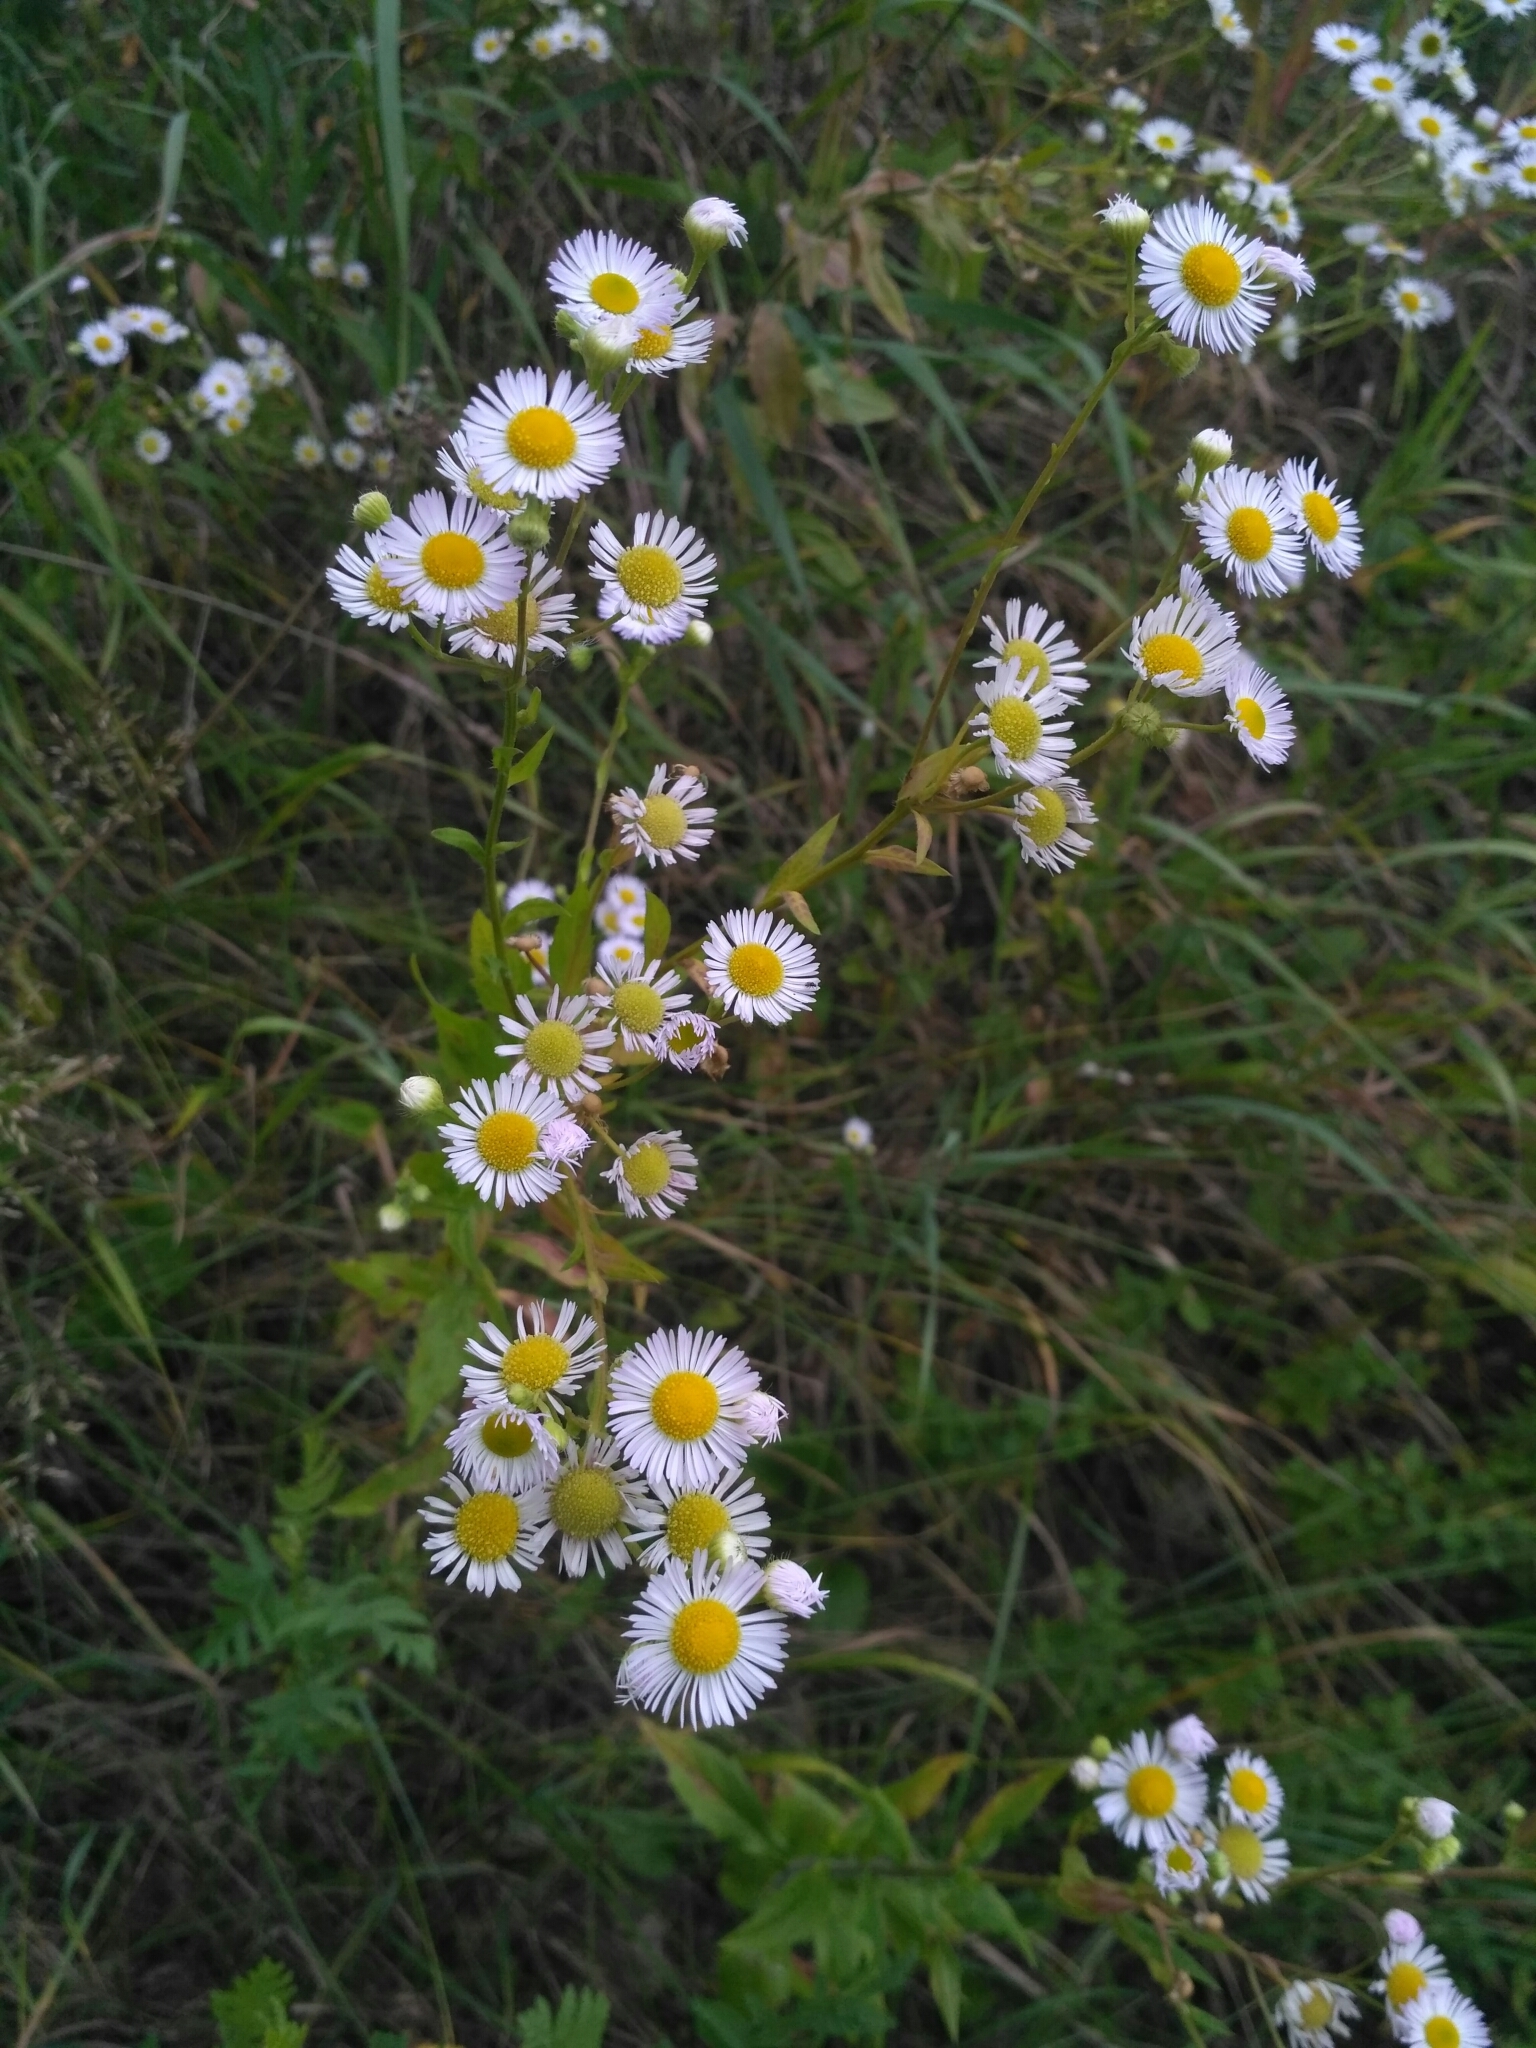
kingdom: Plantae
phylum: Tracheophyta
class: Magnoliopsida
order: Asterales
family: Asteraceae
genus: Erigeron
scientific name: Erigeron annuus
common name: Tall fleabane
